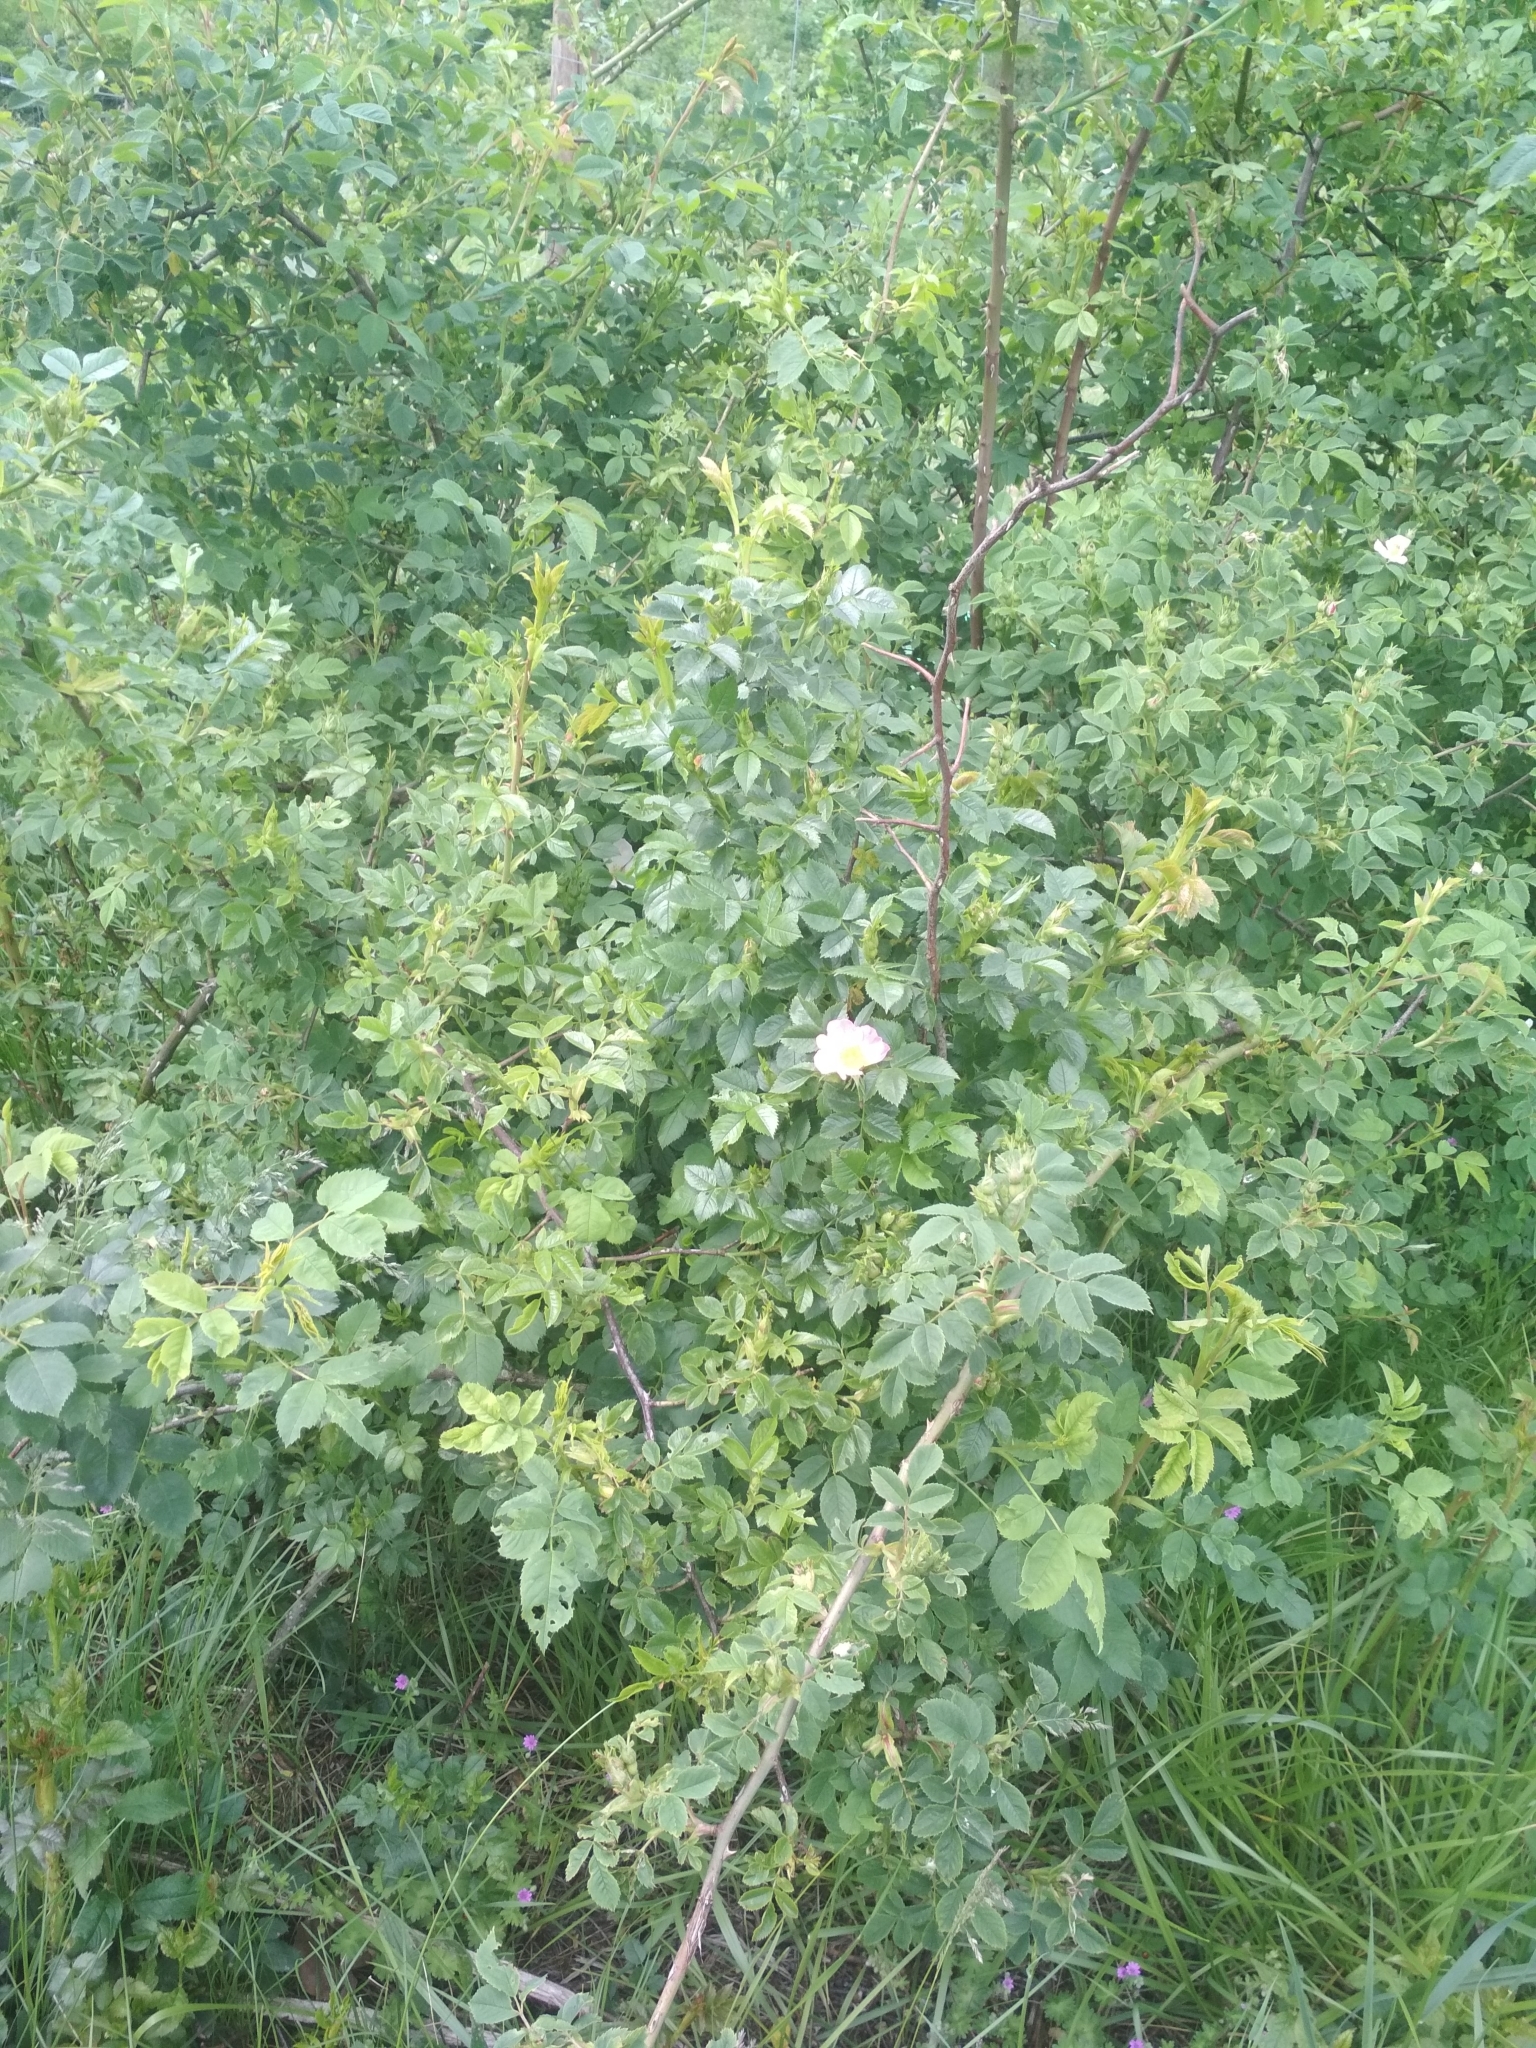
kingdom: Plantae
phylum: Tracheophyta
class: Magnoliopsida
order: Rosales
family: Rosaceae
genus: Rosa
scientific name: Rosa canina
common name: Dog rose
